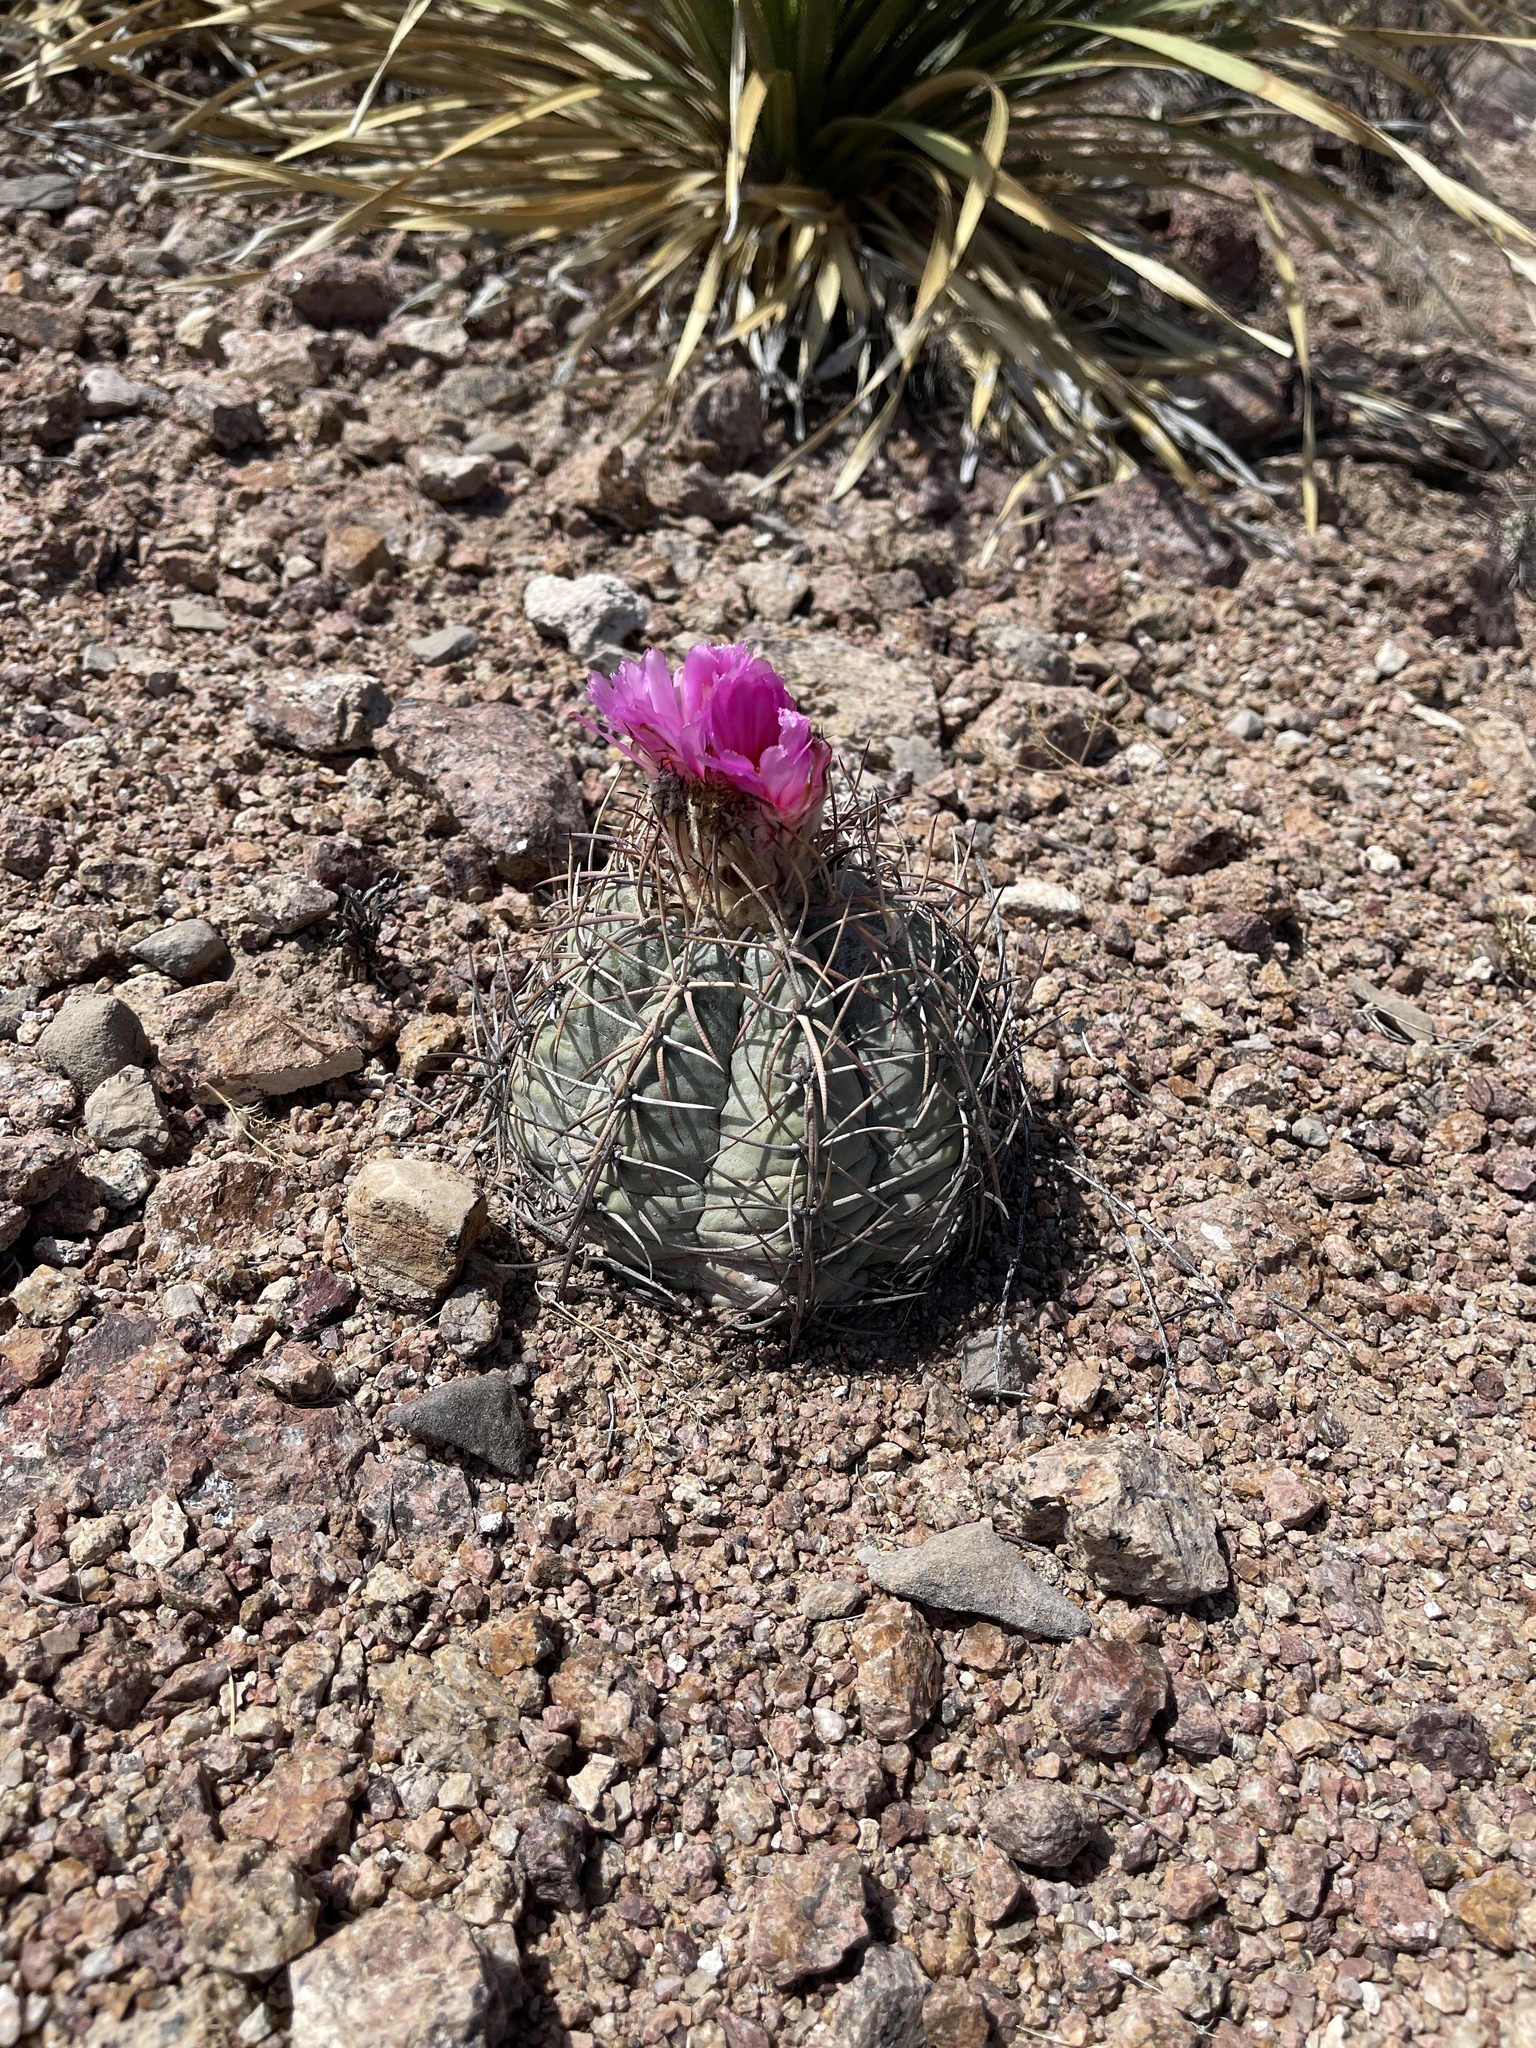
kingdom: Plantae
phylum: Tracheophyta
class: Magnoliopsida
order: Caryophyllales
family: Cactaceae
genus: Echinocactus
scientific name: Echinocactus horizonthalonius
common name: Devilshead
